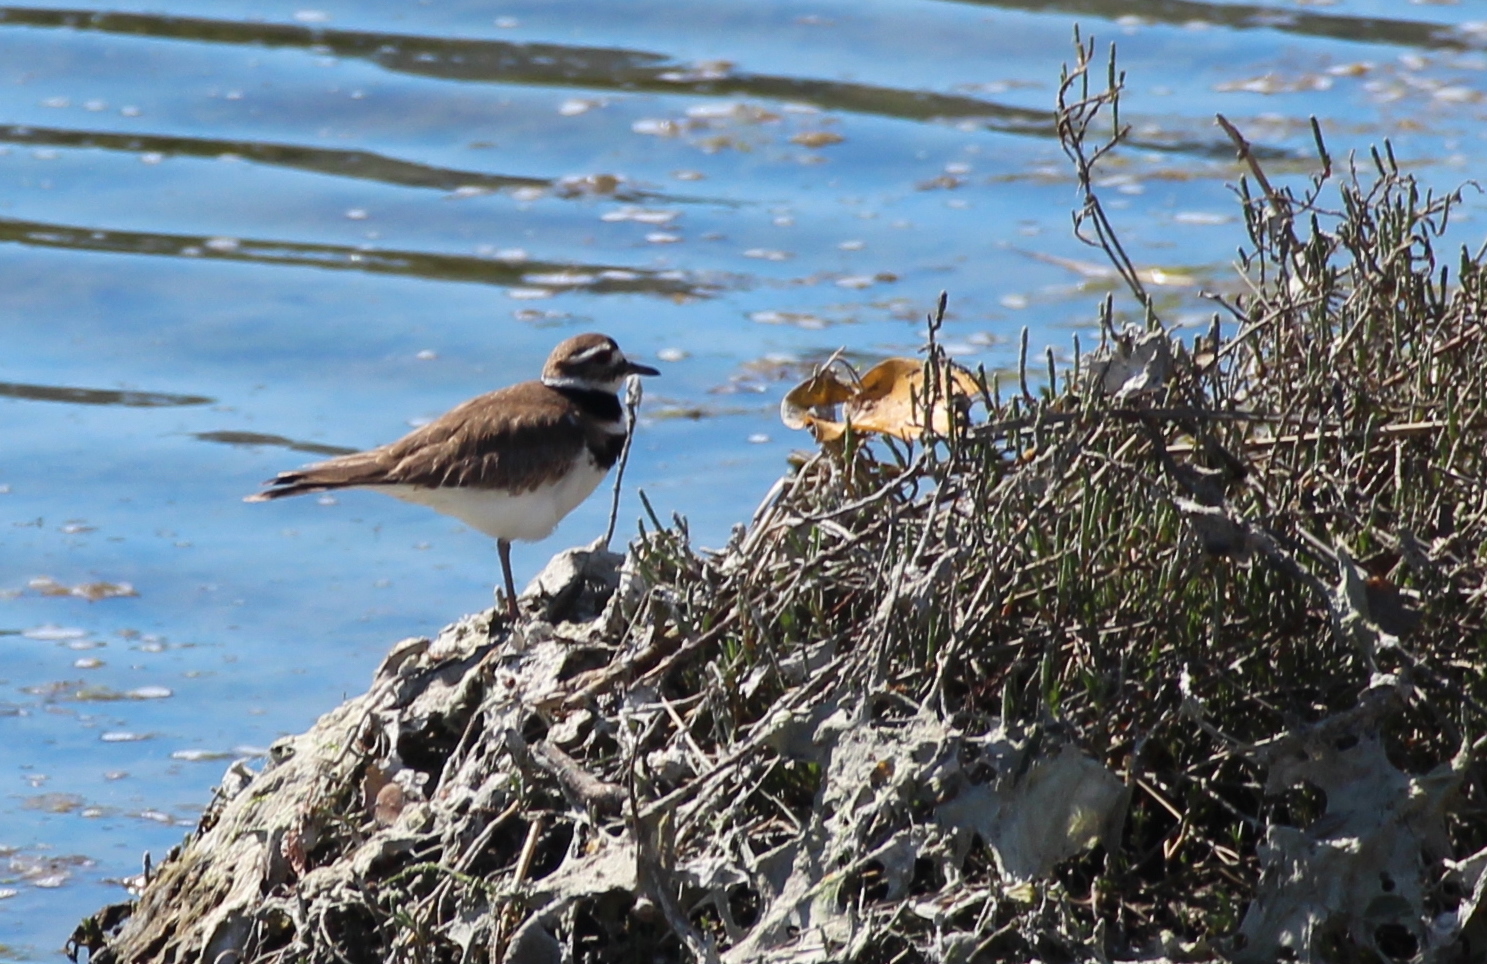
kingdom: Animalia
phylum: Chordata
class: Aves
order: Charadriiformes
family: Charadriidae
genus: Charadrius
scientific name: Charadrius vociferus
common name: Killdeer
